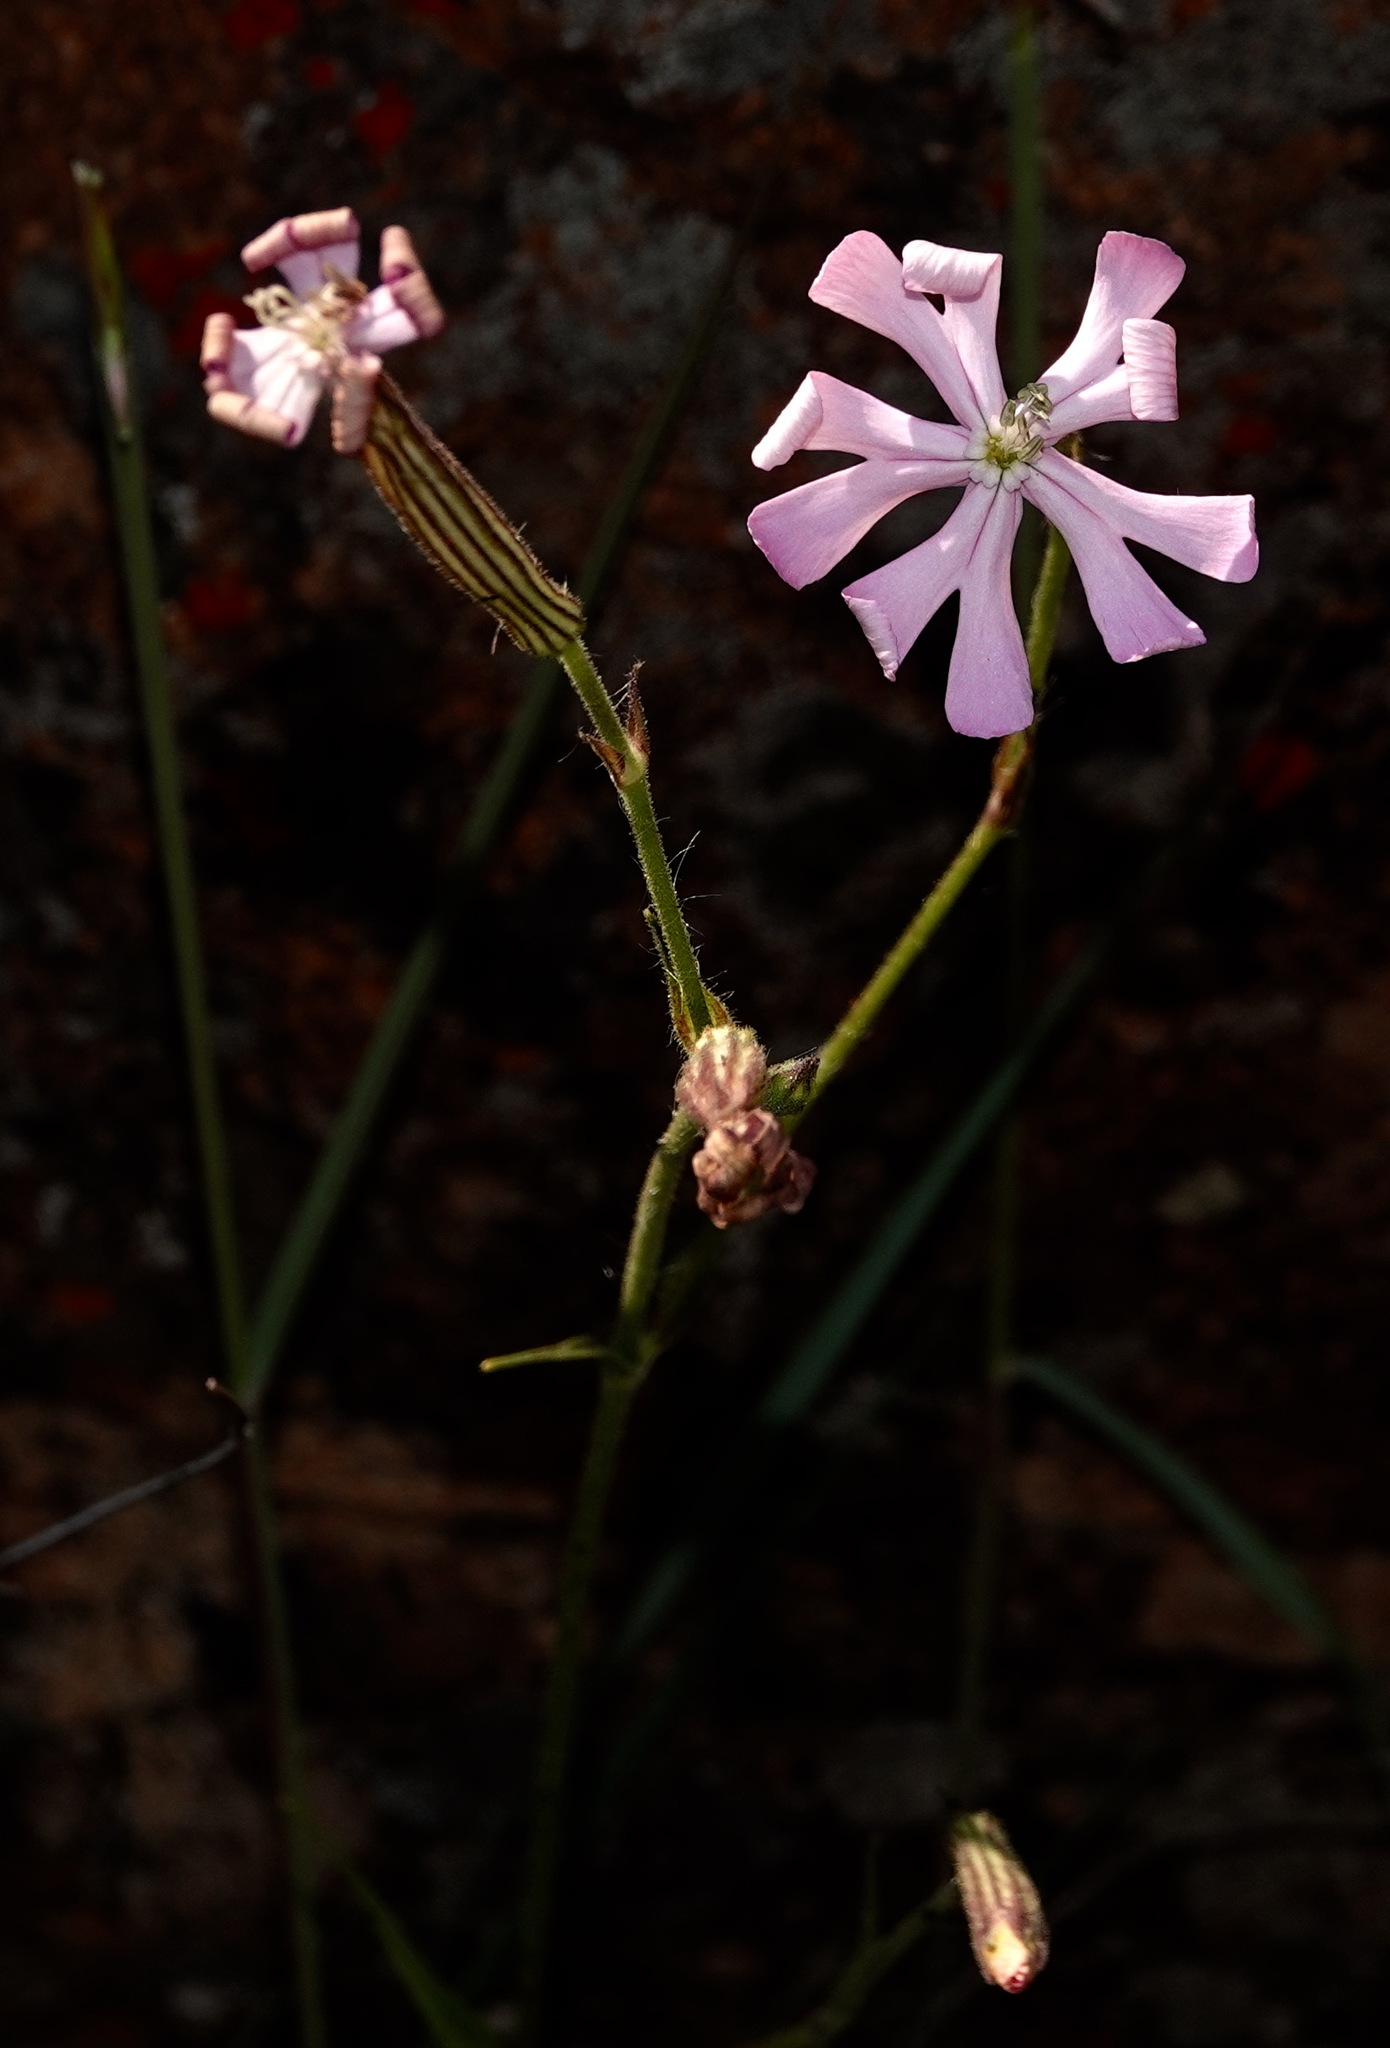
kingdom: Plantae
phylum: Tracheophyta
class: Magnoliopsida
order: Caryophyllales
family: Caryophyllaceae
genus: Silene
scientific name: Silene undulata
